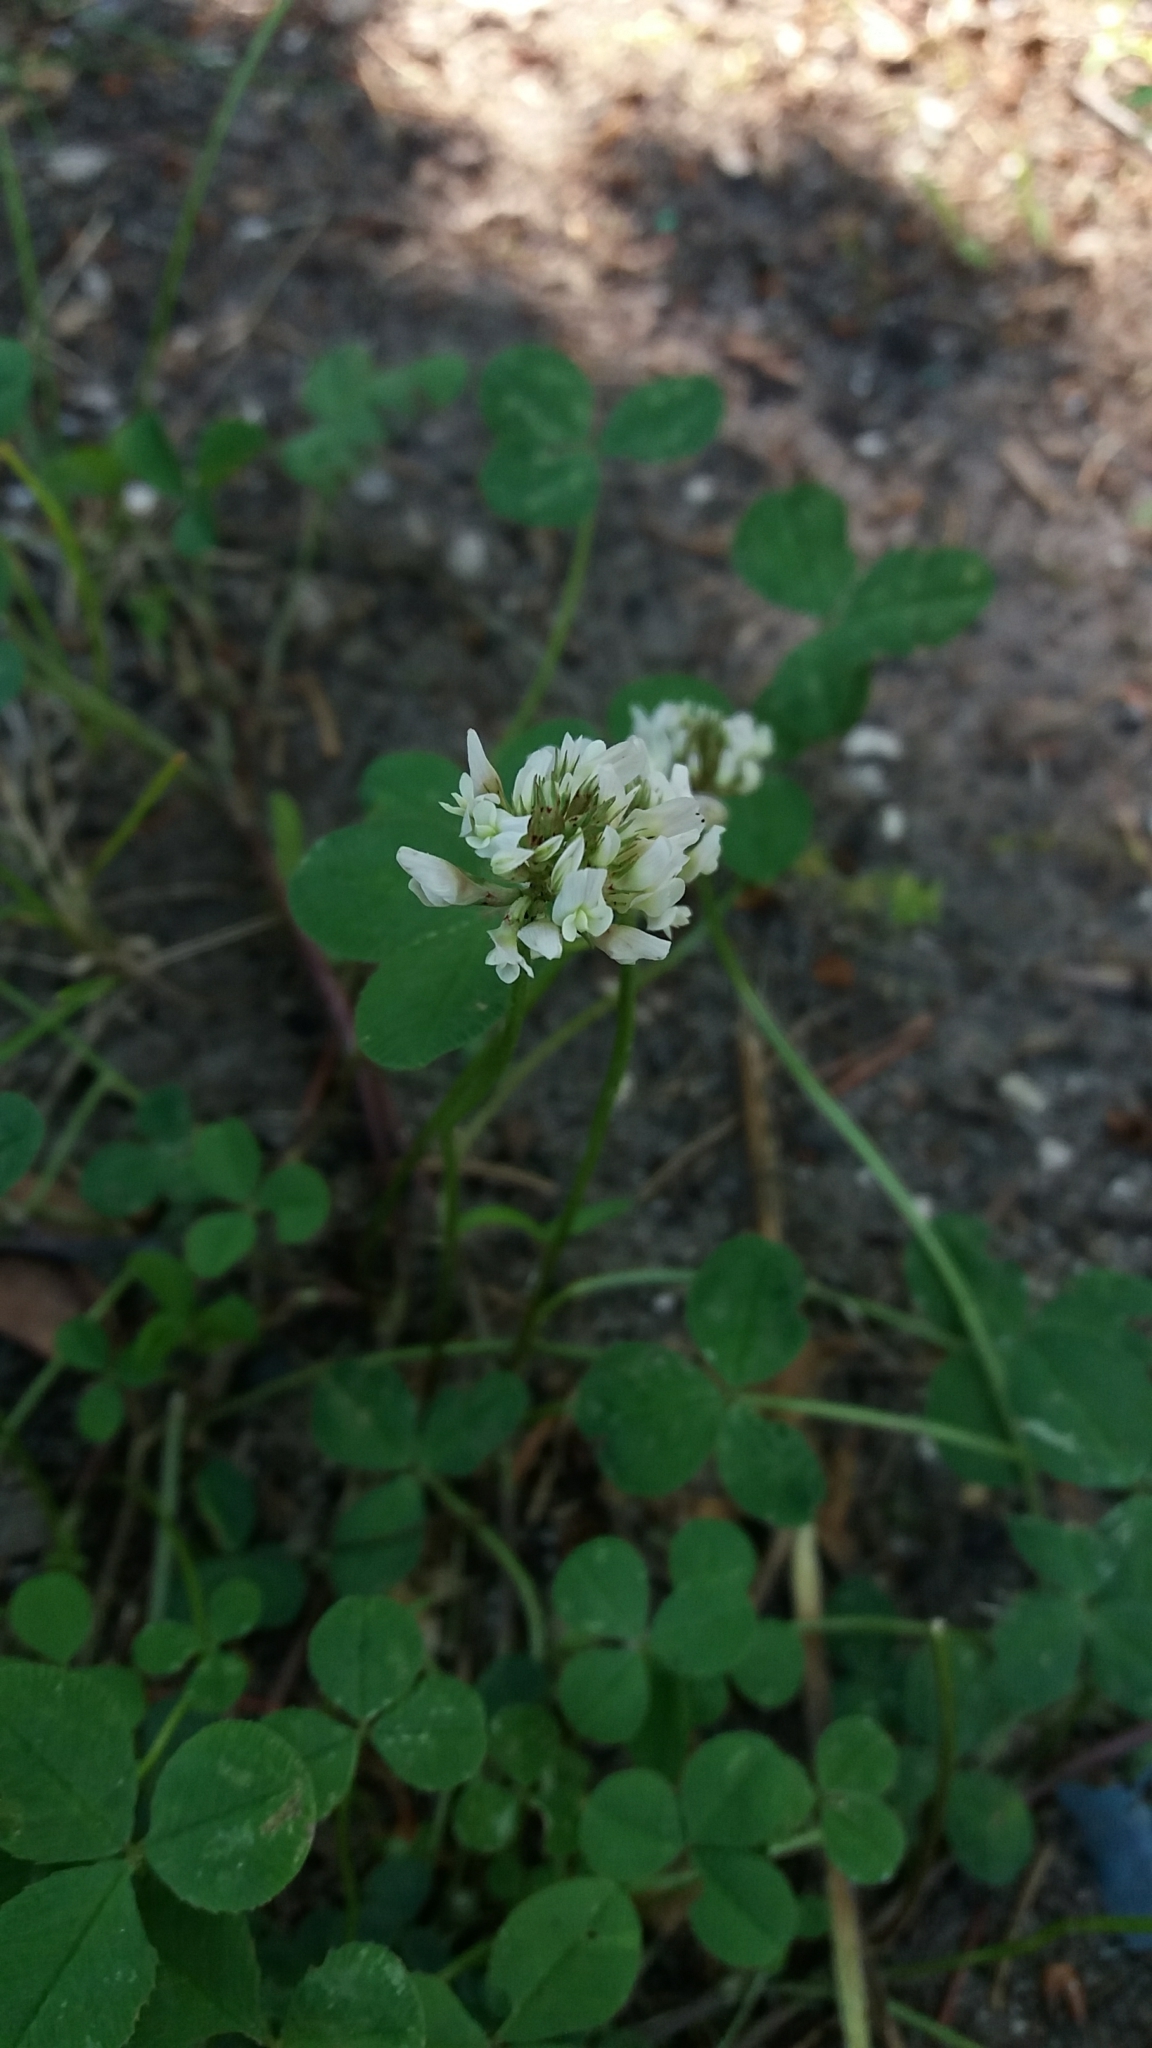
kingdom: Plantae
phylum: Tracheophyta
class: Magnoliopsida
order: Fabales
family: Fabaceae
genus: Trifolium
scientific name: Trifolium repens
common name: White clover
